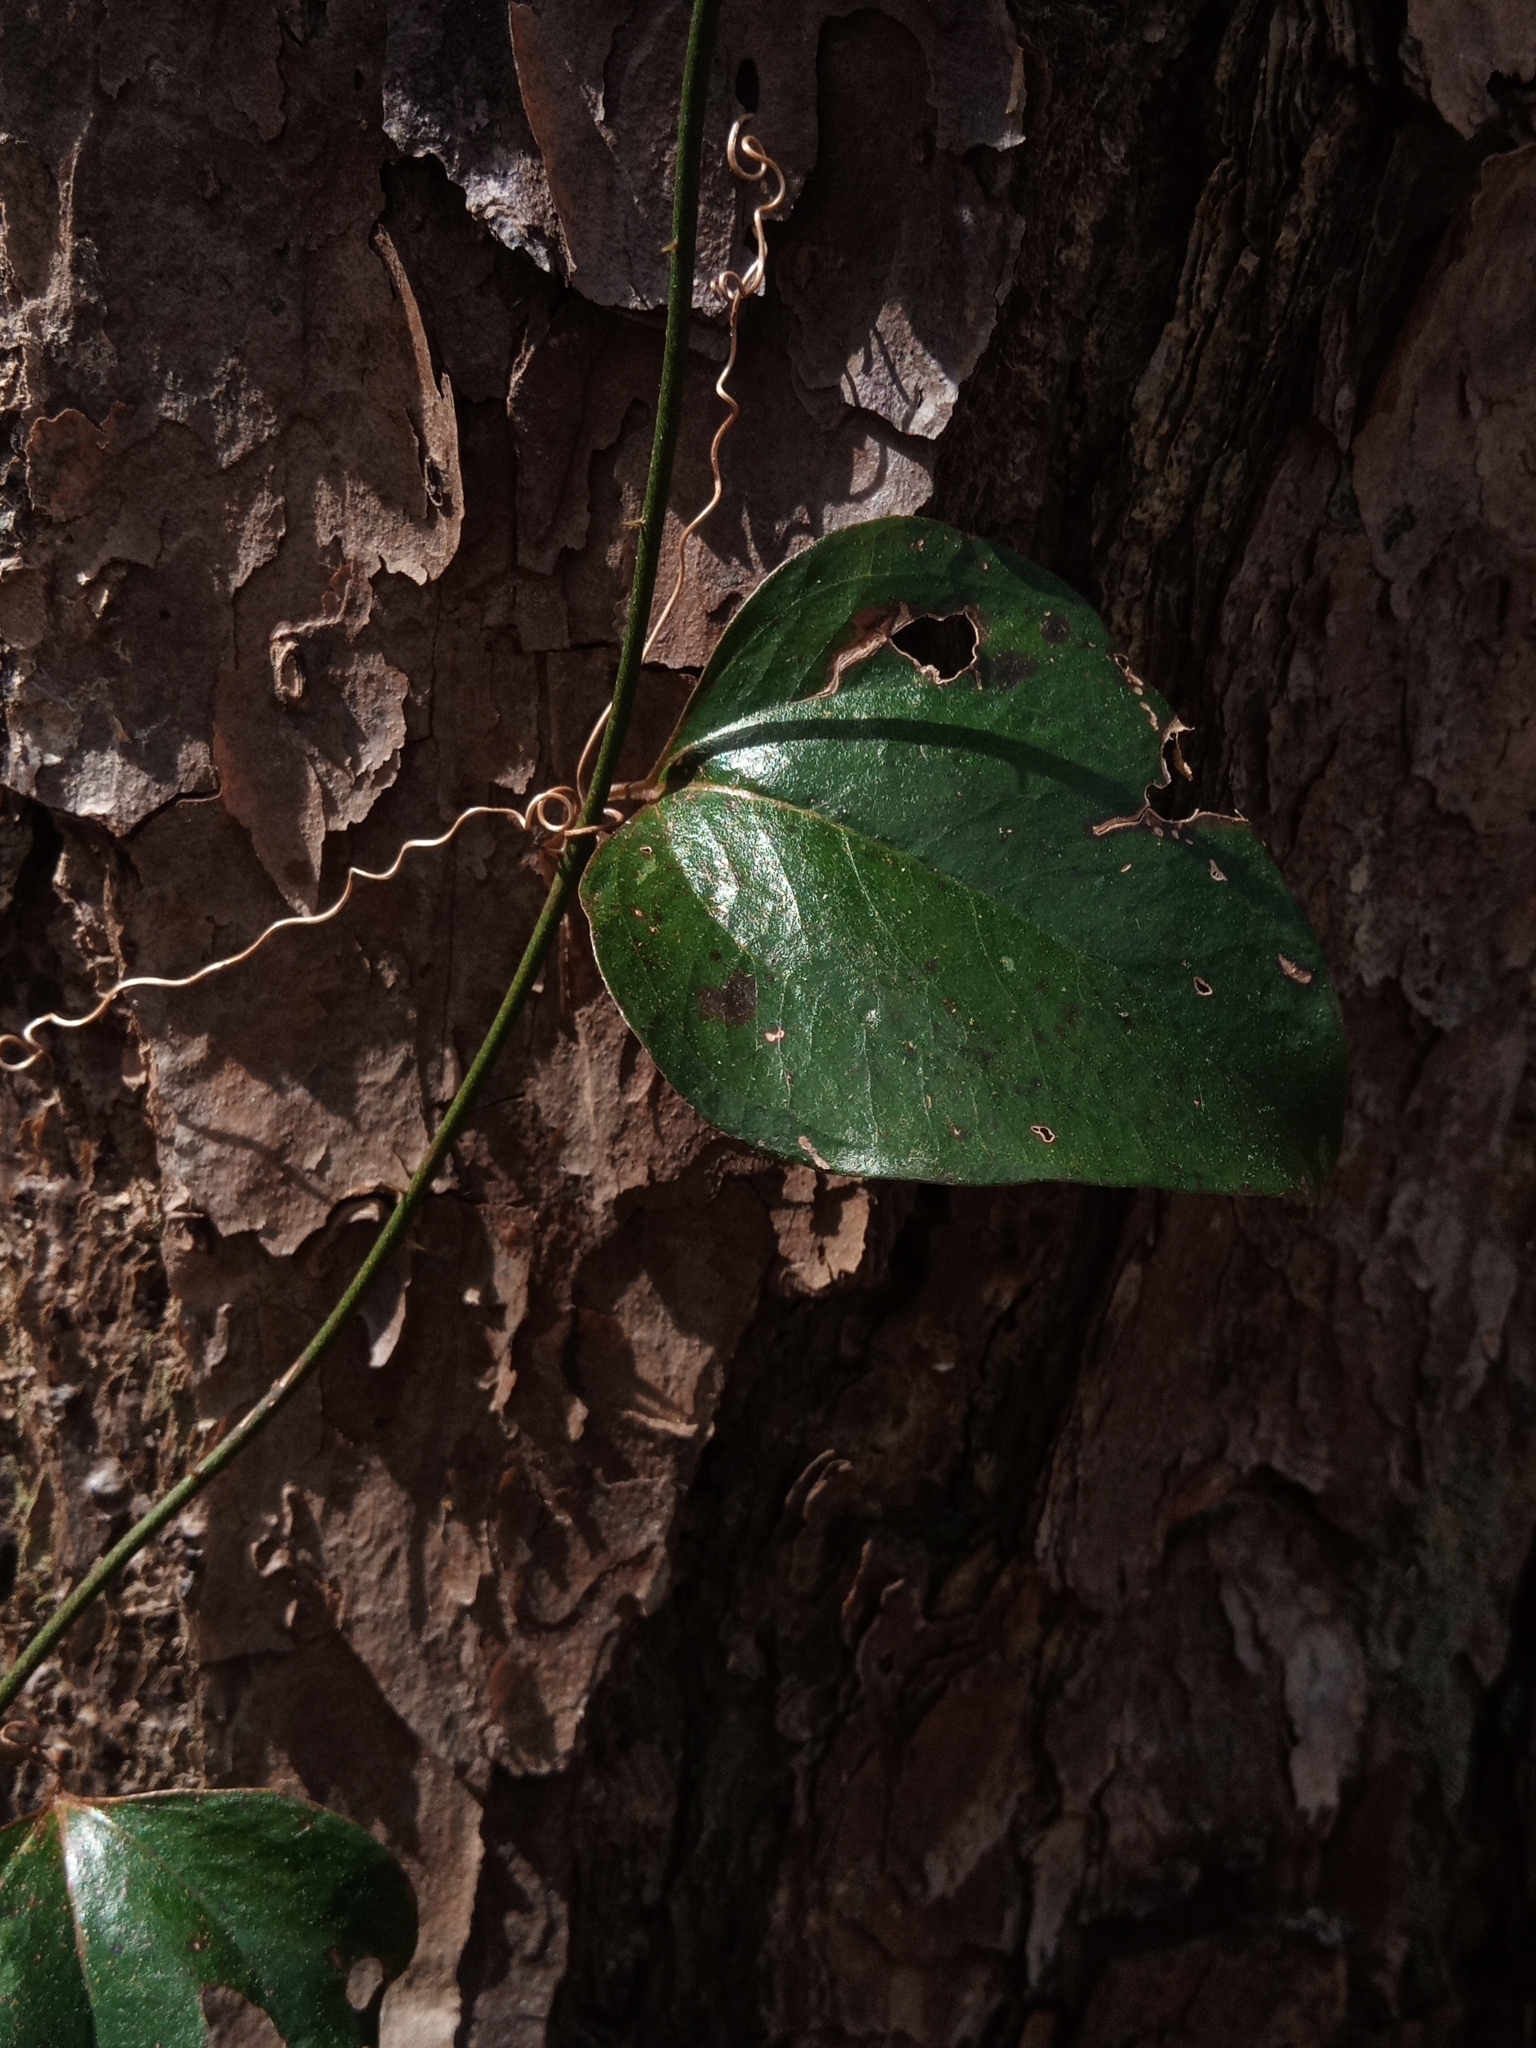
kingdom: Plantae
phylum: Tracheophyta
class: Liliopsida
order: Liliales
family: Smilacaceae
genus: Smilax
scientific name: Smilax glauca
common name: Cat greenbrier
